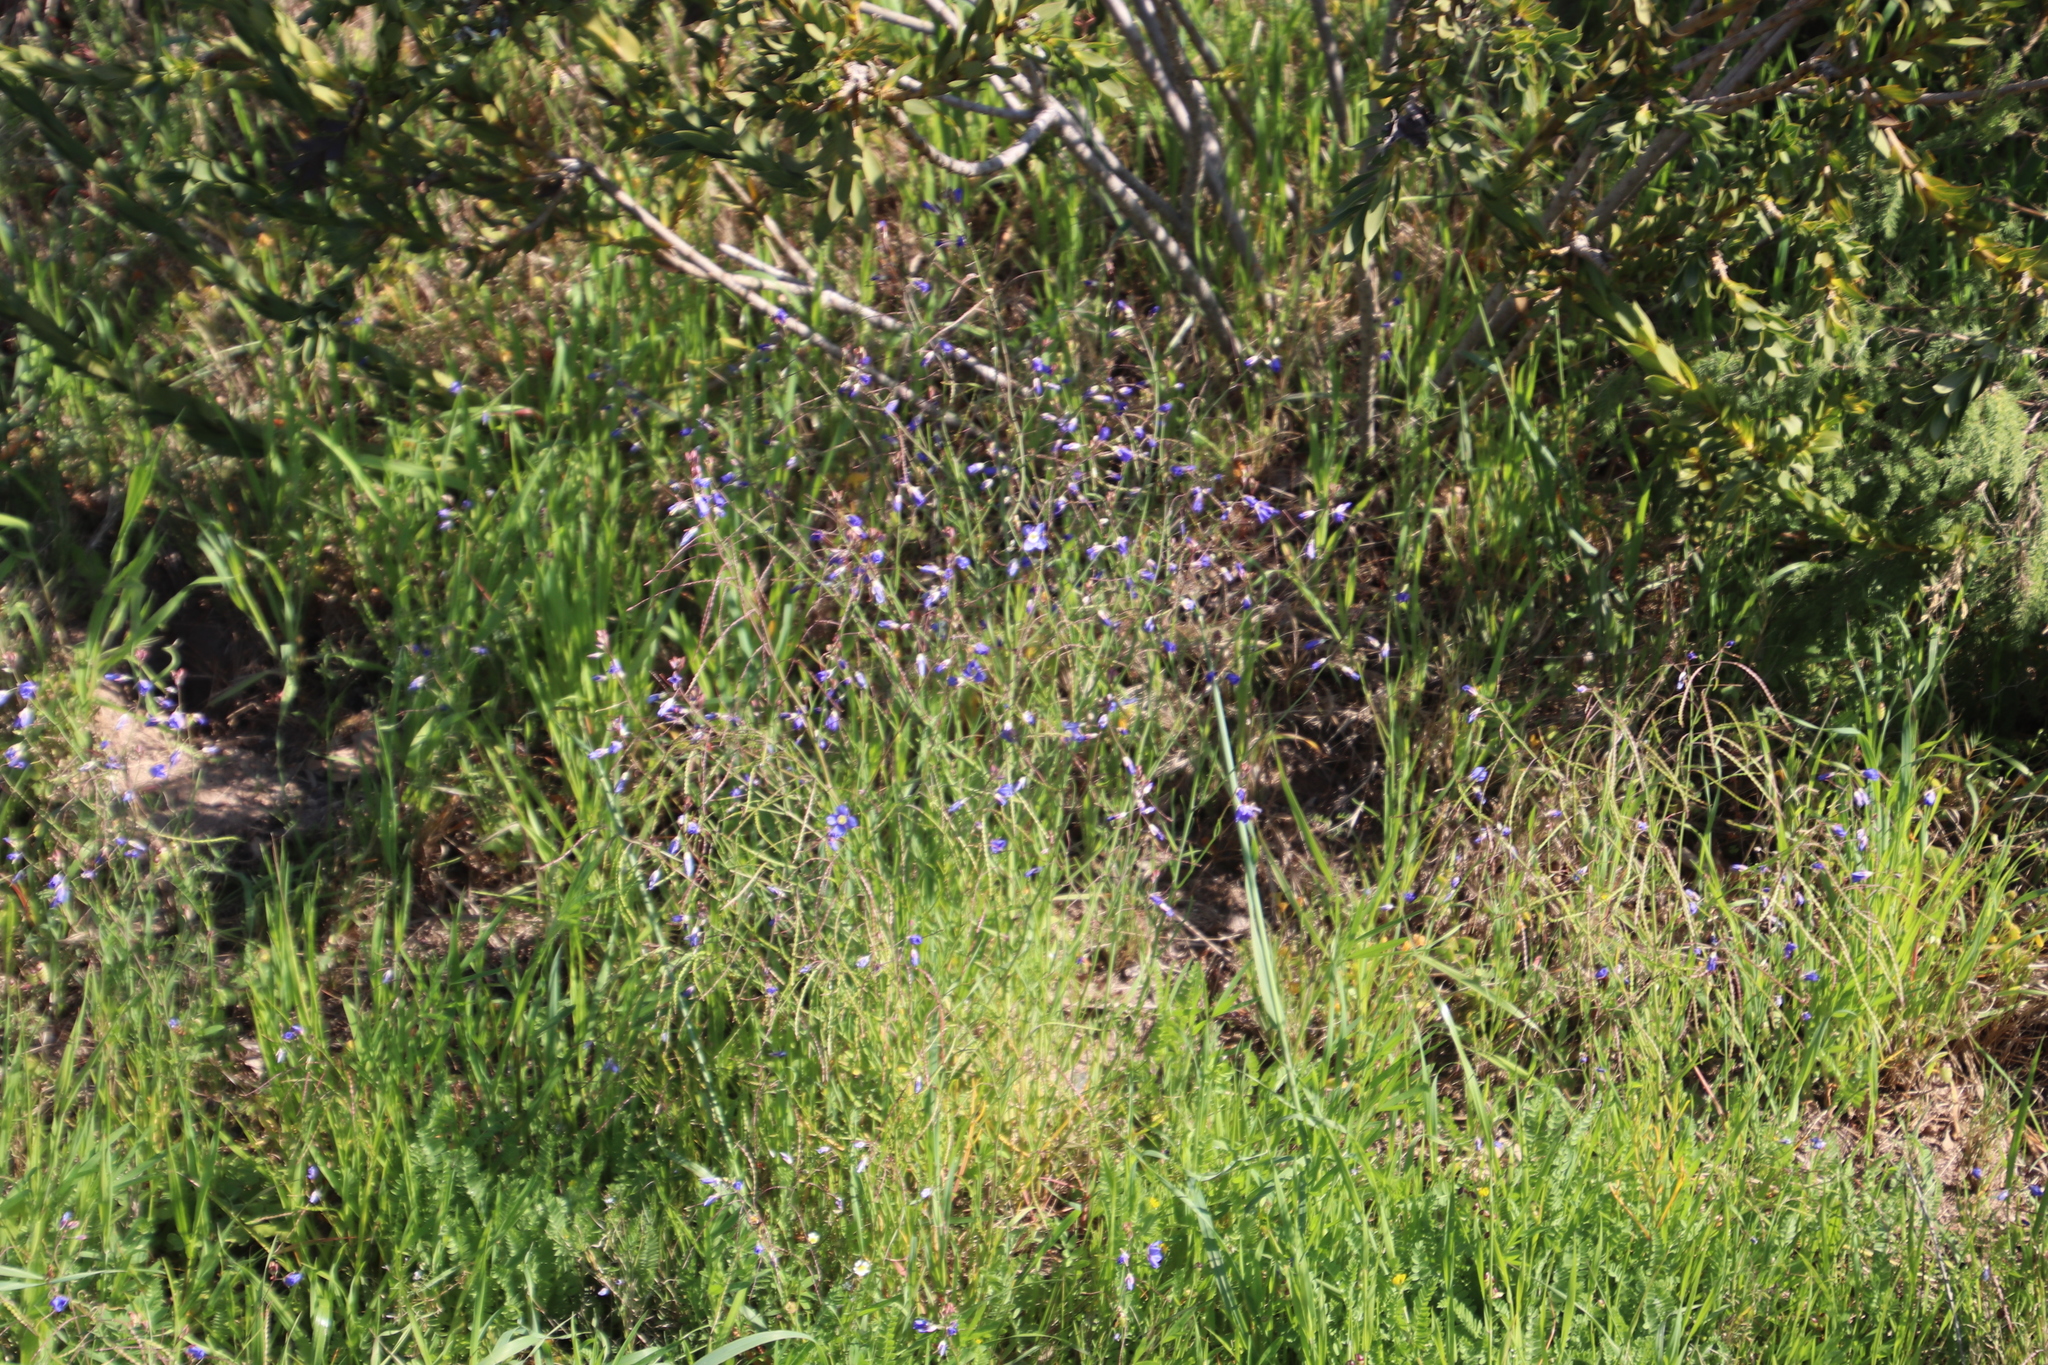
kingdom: Plantae
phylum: Tracheophyta
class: Magnoliopsida
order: Brassicales
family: Brassicaceae
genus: Heliophila
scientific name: Heliophila coronopifolia
